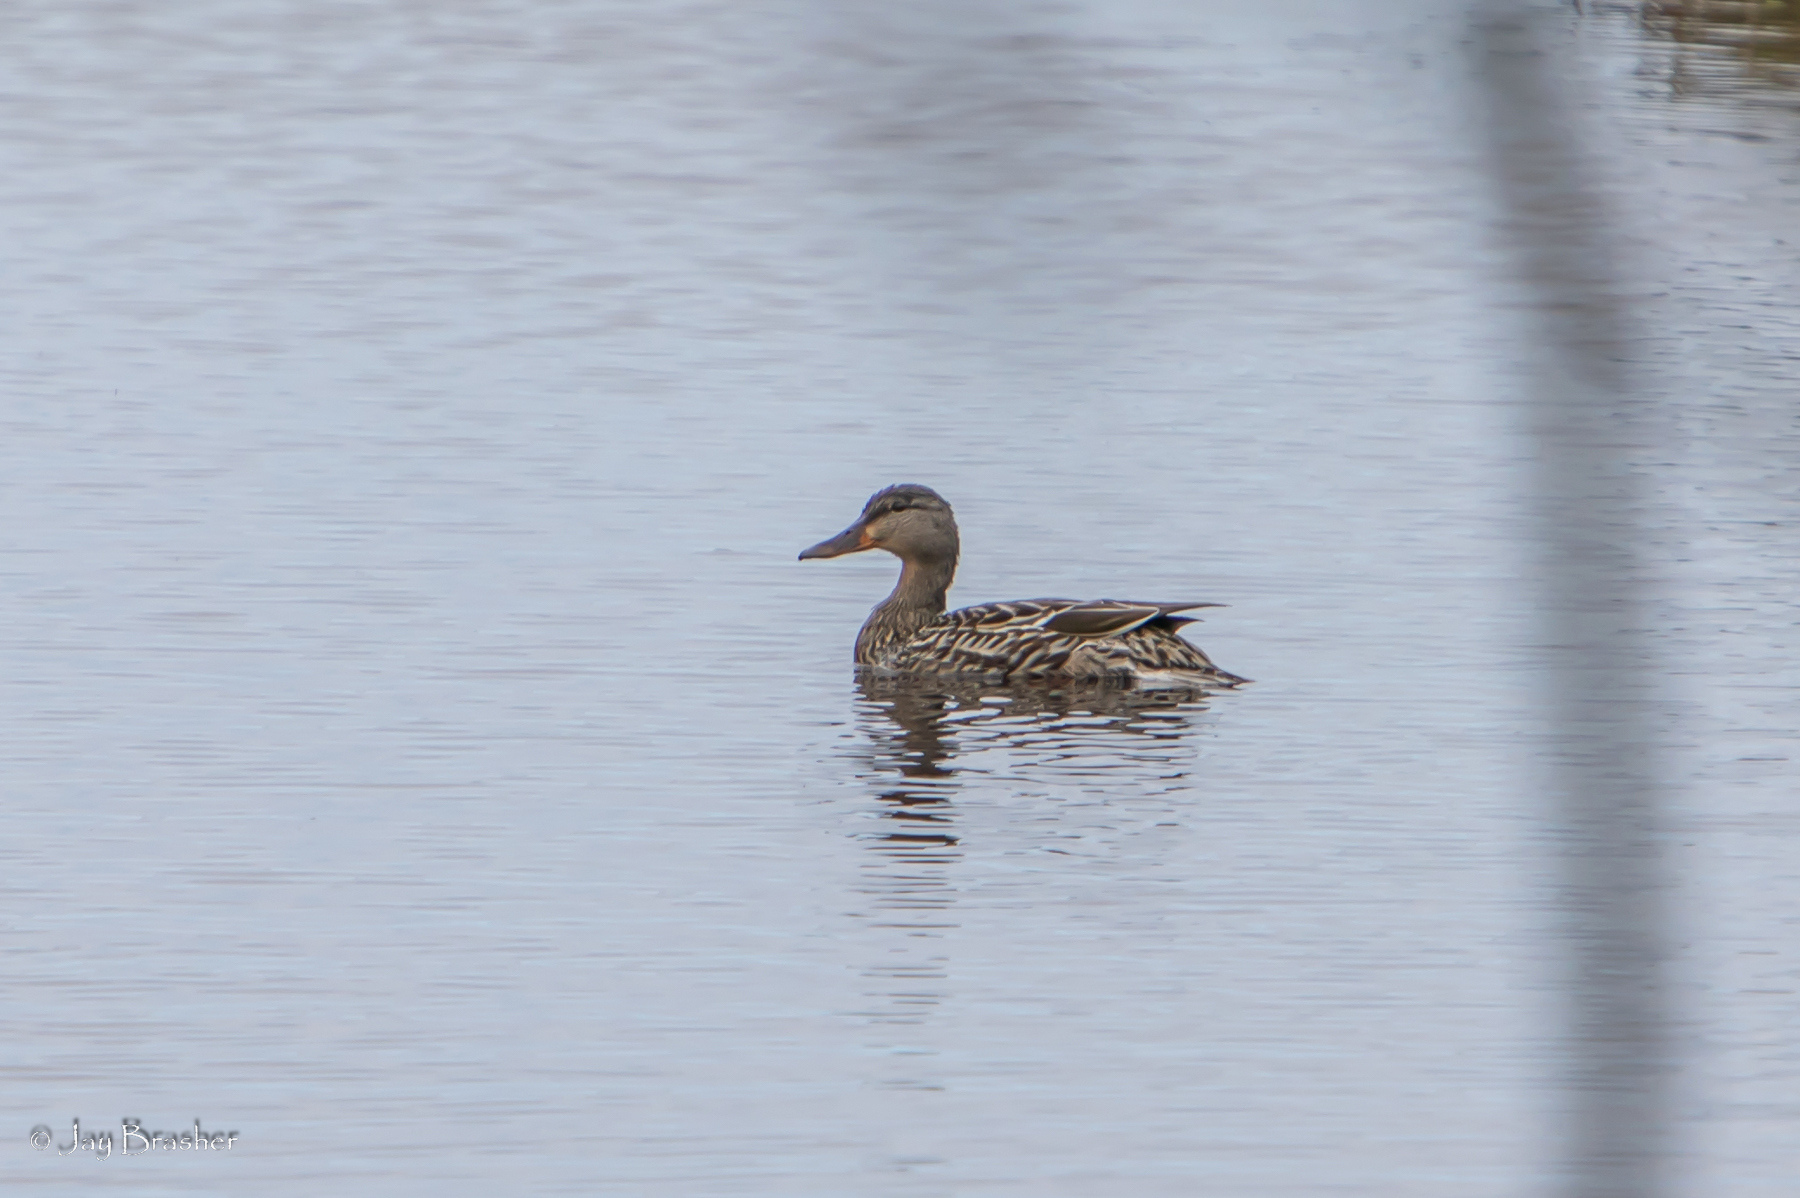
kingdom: Animalia
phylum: Chordata
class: Aves
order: Anseriformes
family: Anatidae
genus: Anas
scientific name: Anas platyrhynchos
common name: Mallard
